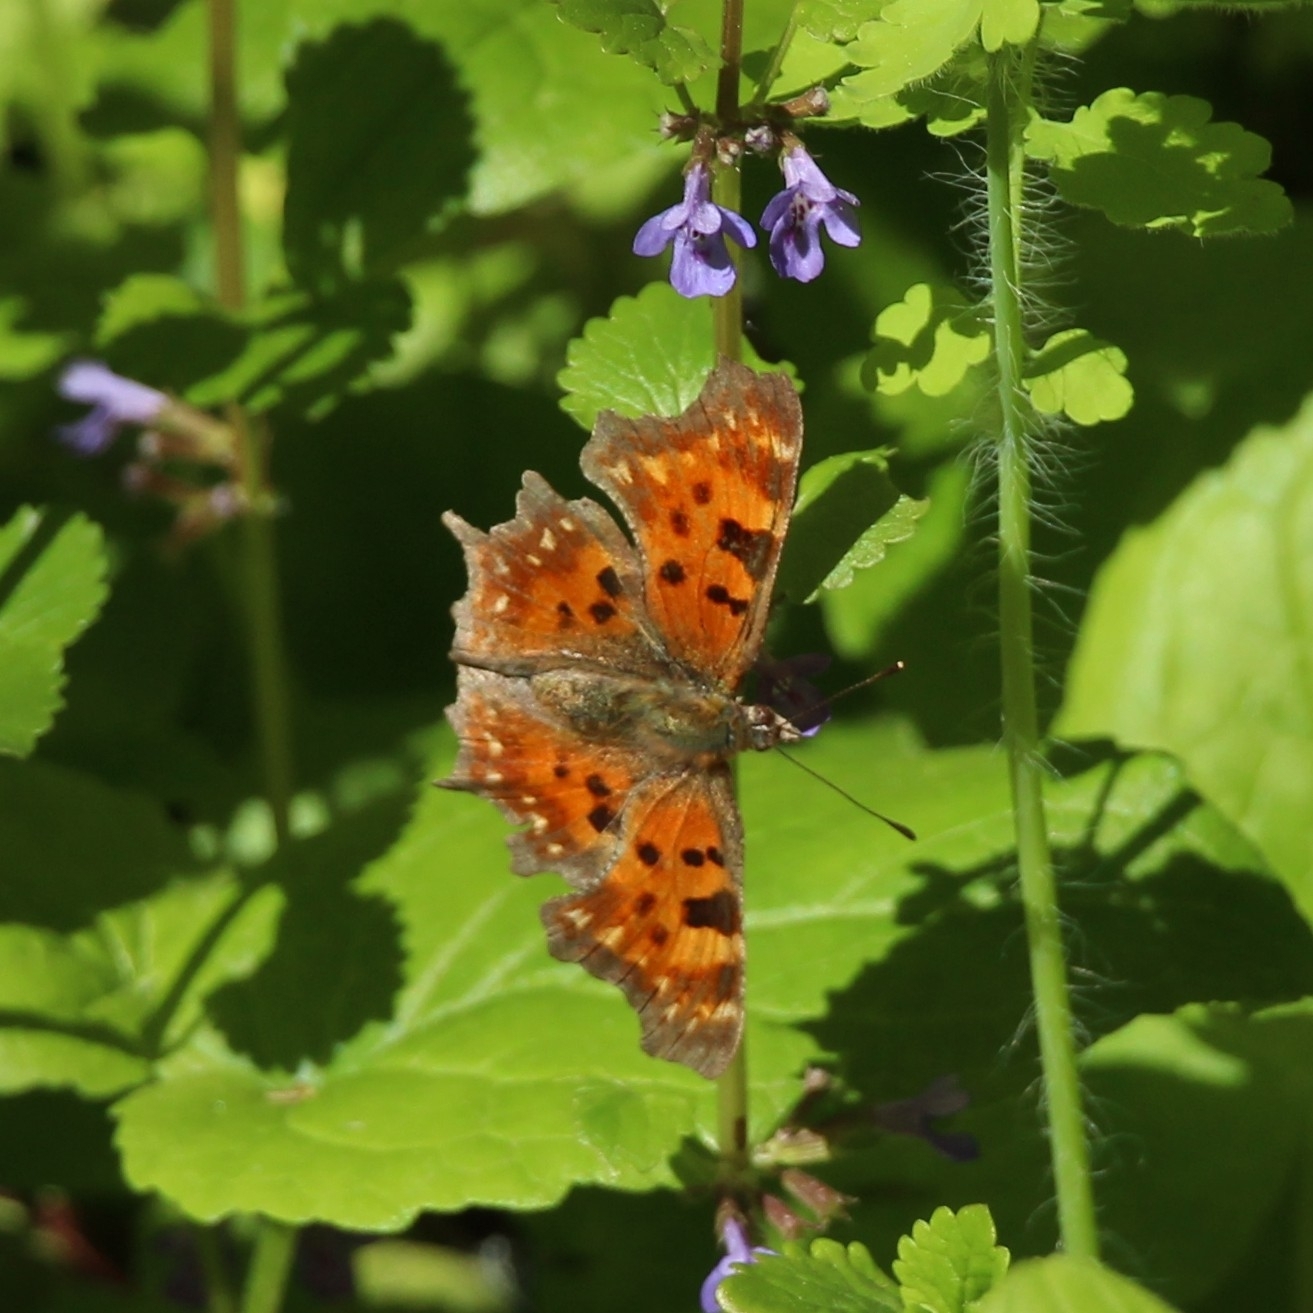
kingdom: Animalia
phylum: Arthropoda
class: Insecta
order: Lepidoptera
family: Nymphalidae
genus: Polygonia
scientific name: Polygonia c-album
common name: Comma
